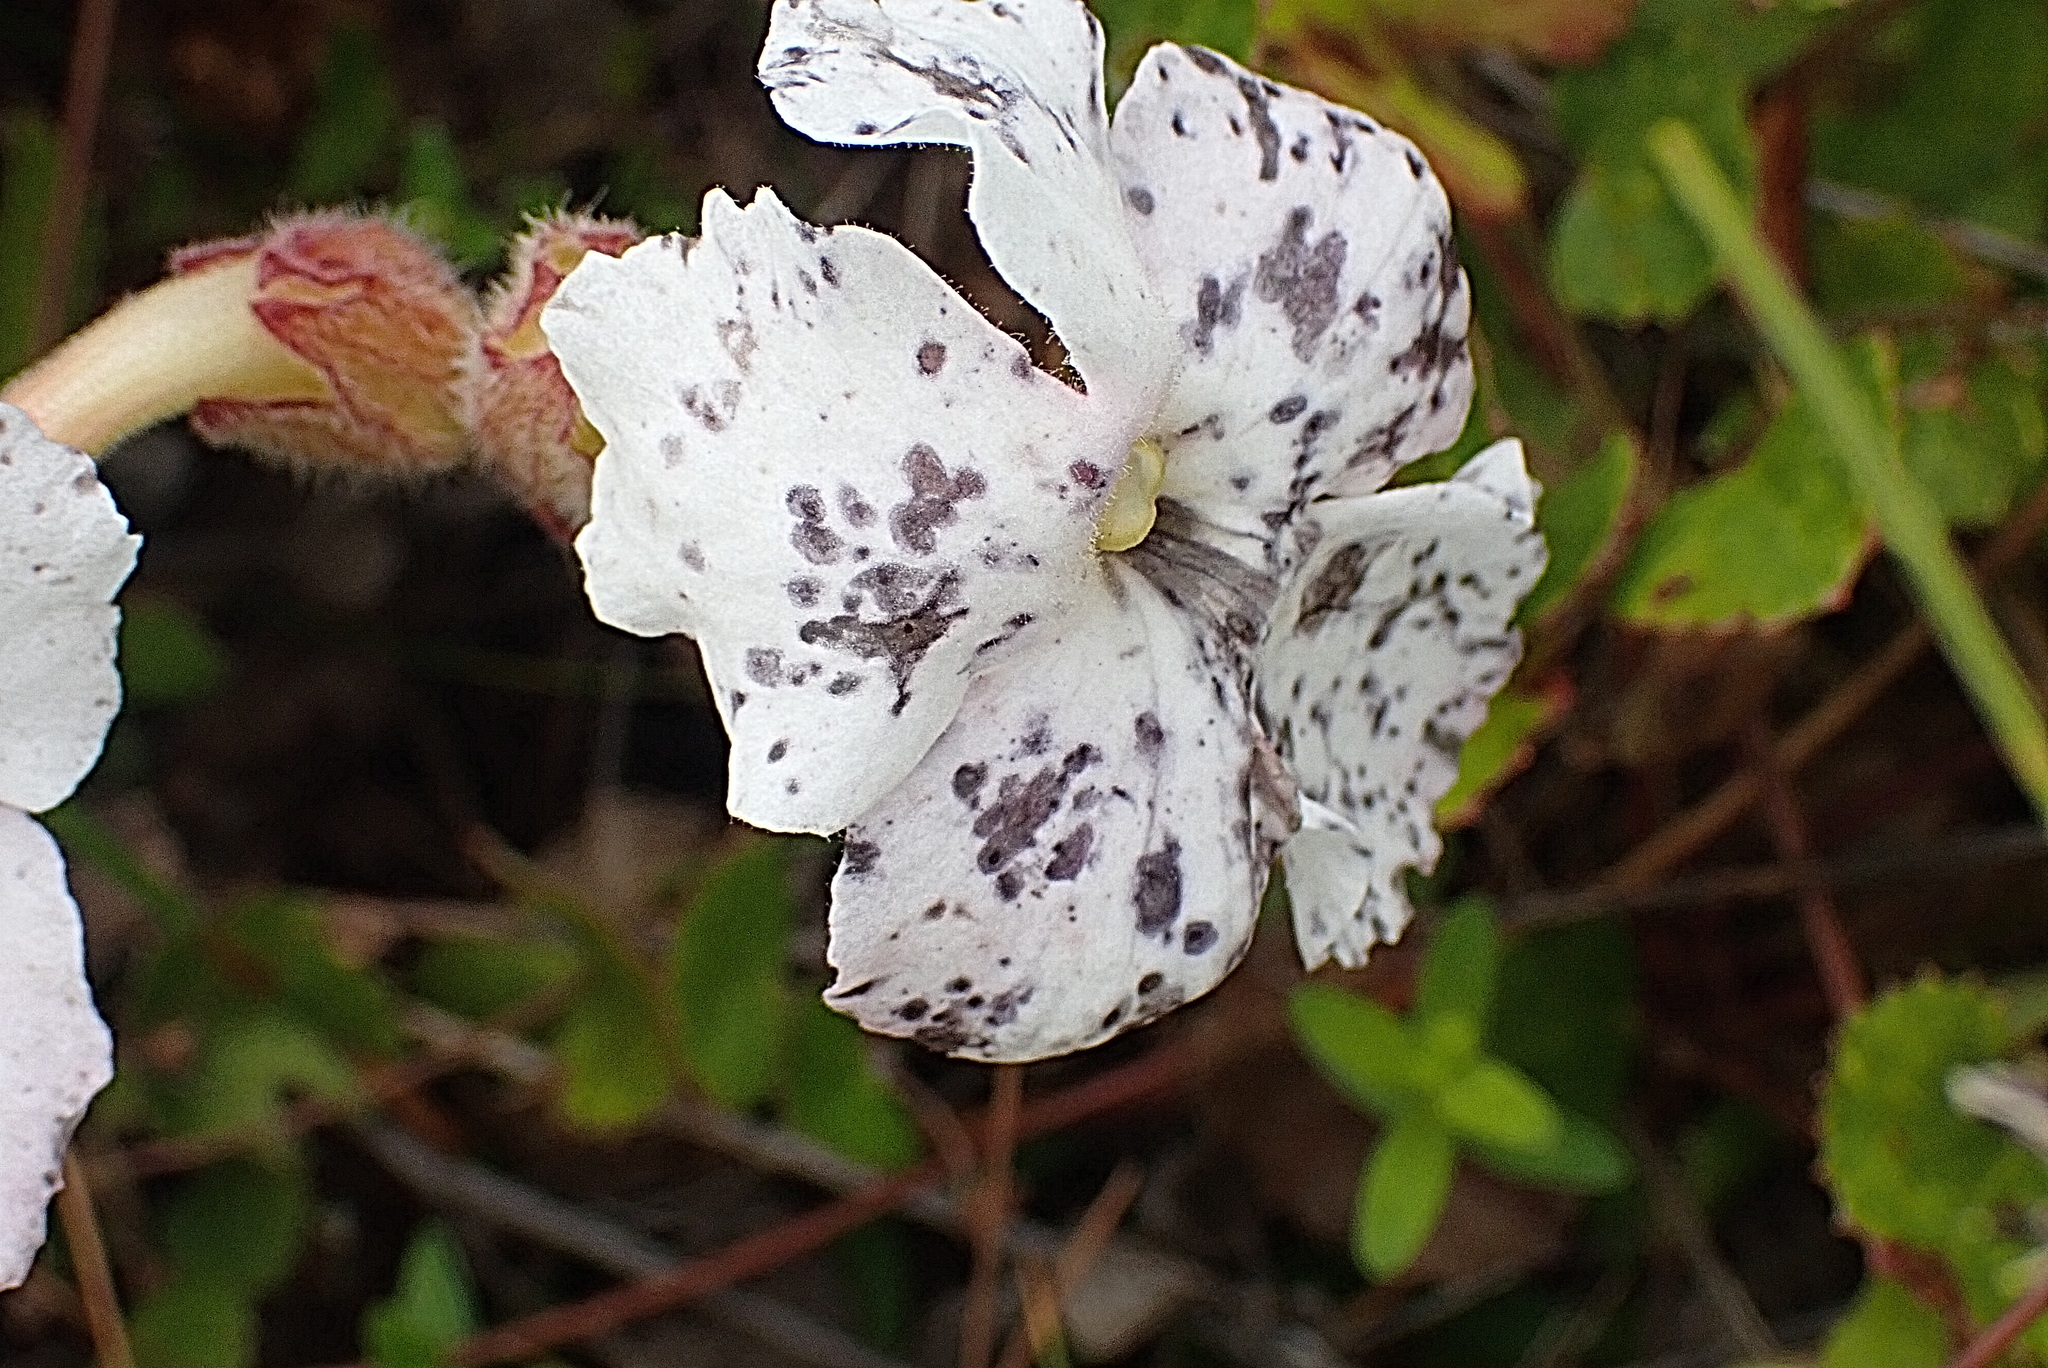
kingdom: Plantae
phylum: Tracheophyta
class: Magnoliopsida
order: Lamiales
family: Orobanchaceae
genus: Harveya
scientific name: Harveya capensis
